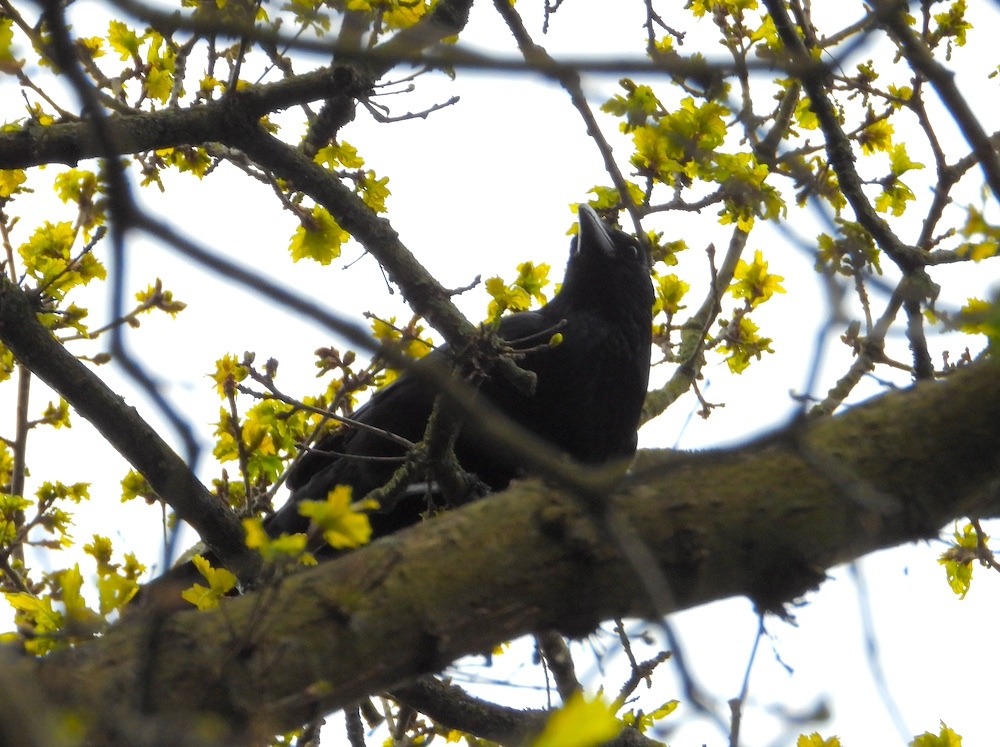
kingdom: Animalia
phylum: Chordata
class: Aves
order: Passeriformes
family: Corvidae
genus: Corvus
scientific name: Corvus corone
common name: Carrion crow
